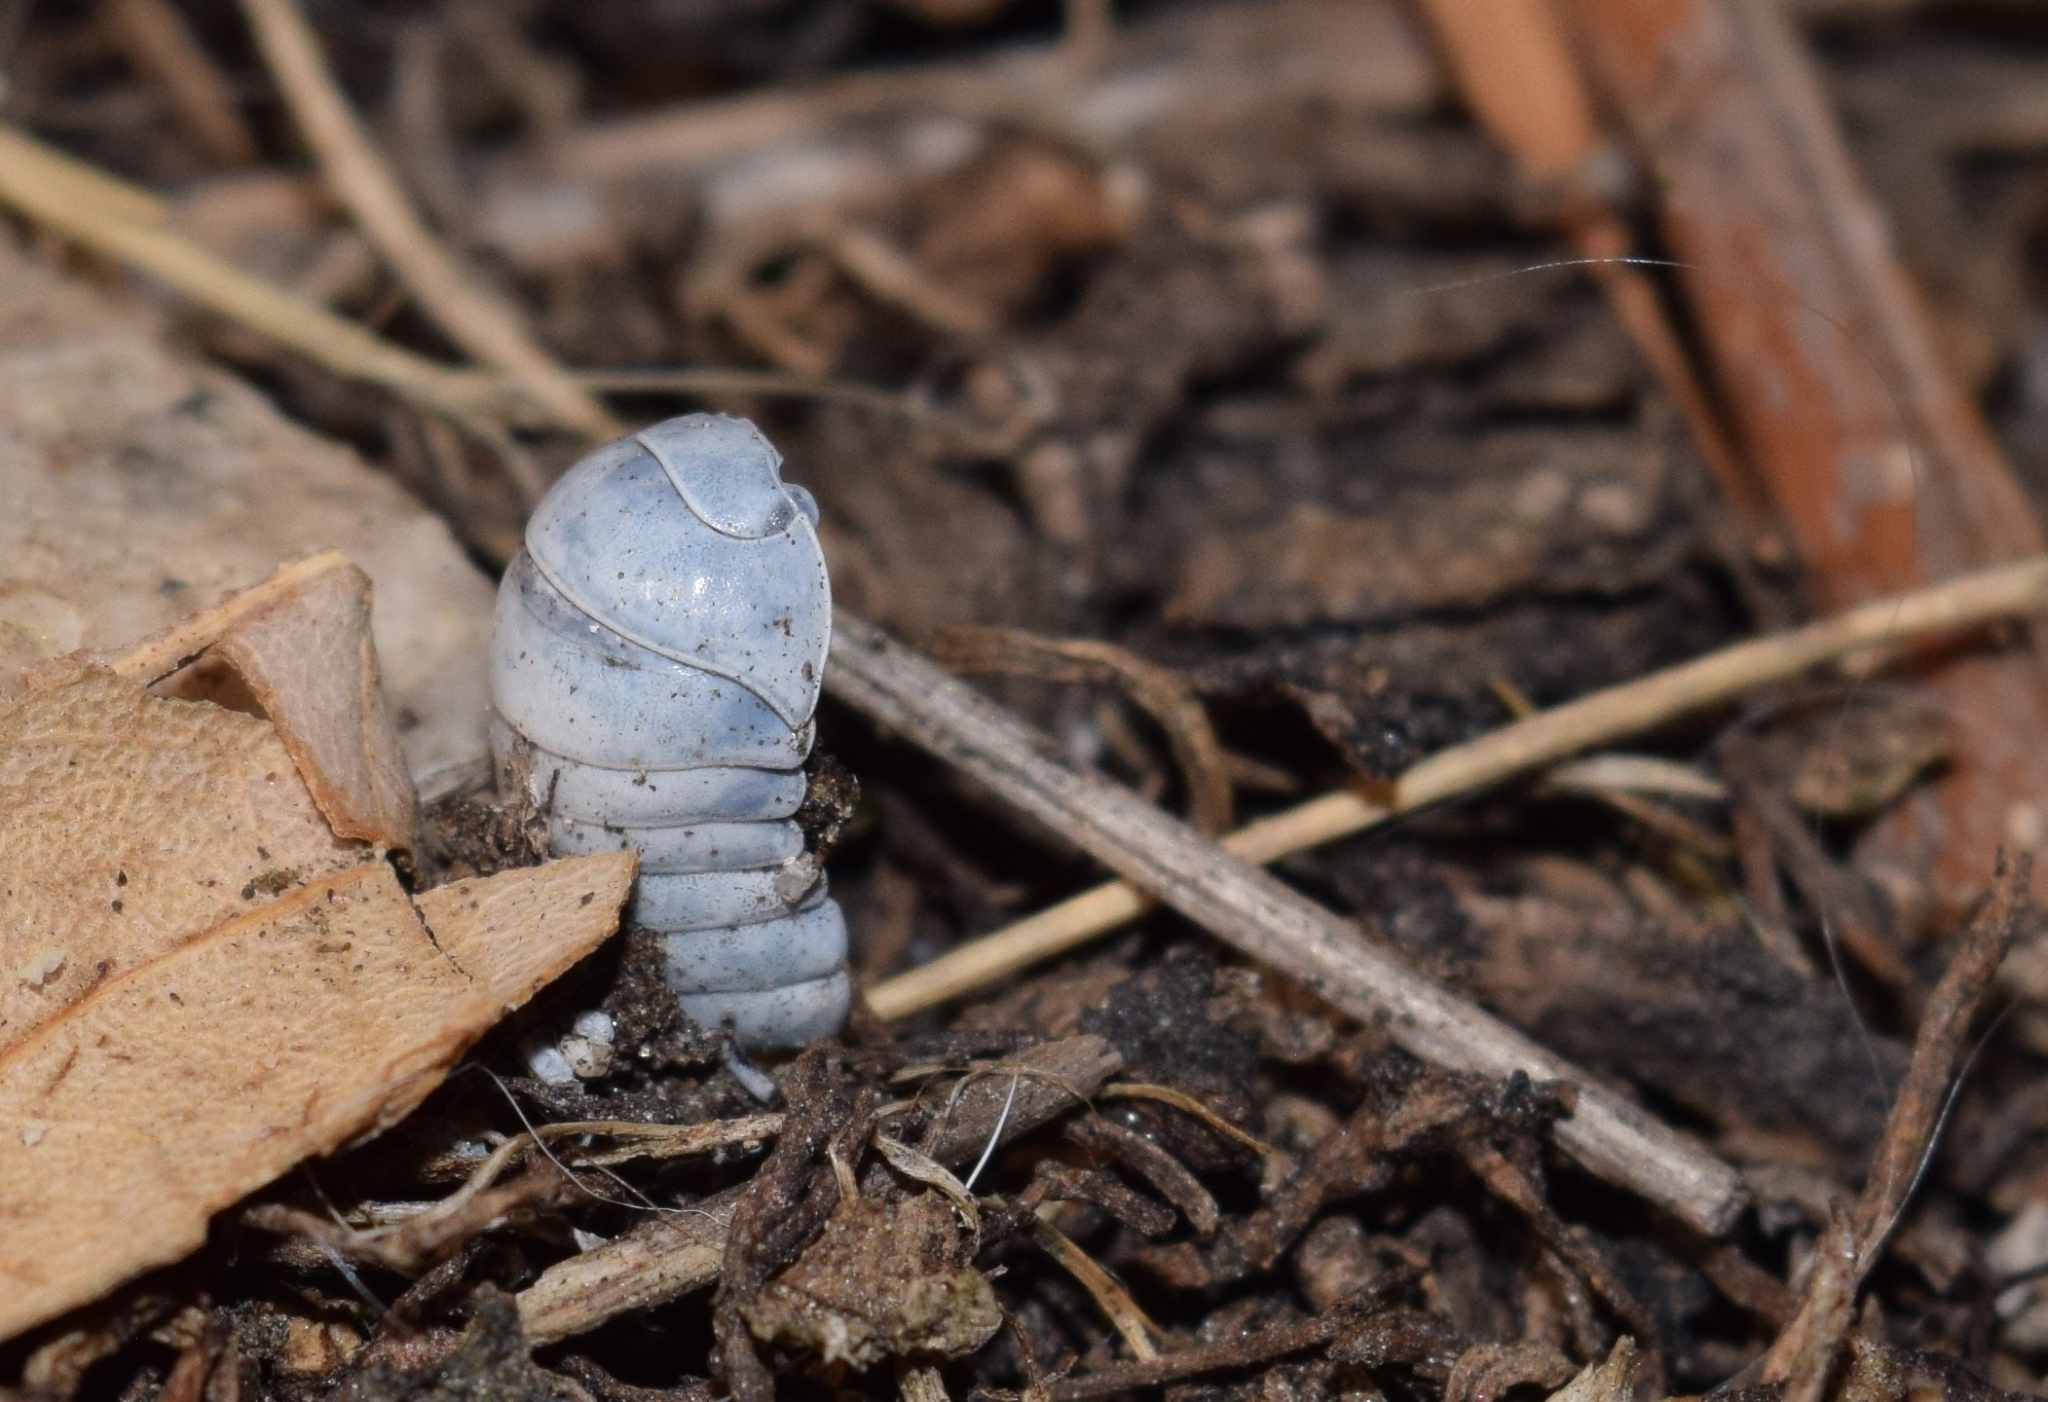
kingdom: Animalia
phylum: Arthropoda
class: Malacostraca
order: Isopoda
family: Armadillidiidae
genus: Armadillidium
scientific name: Armadillidium vulgare
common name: Common pill woodlouse
